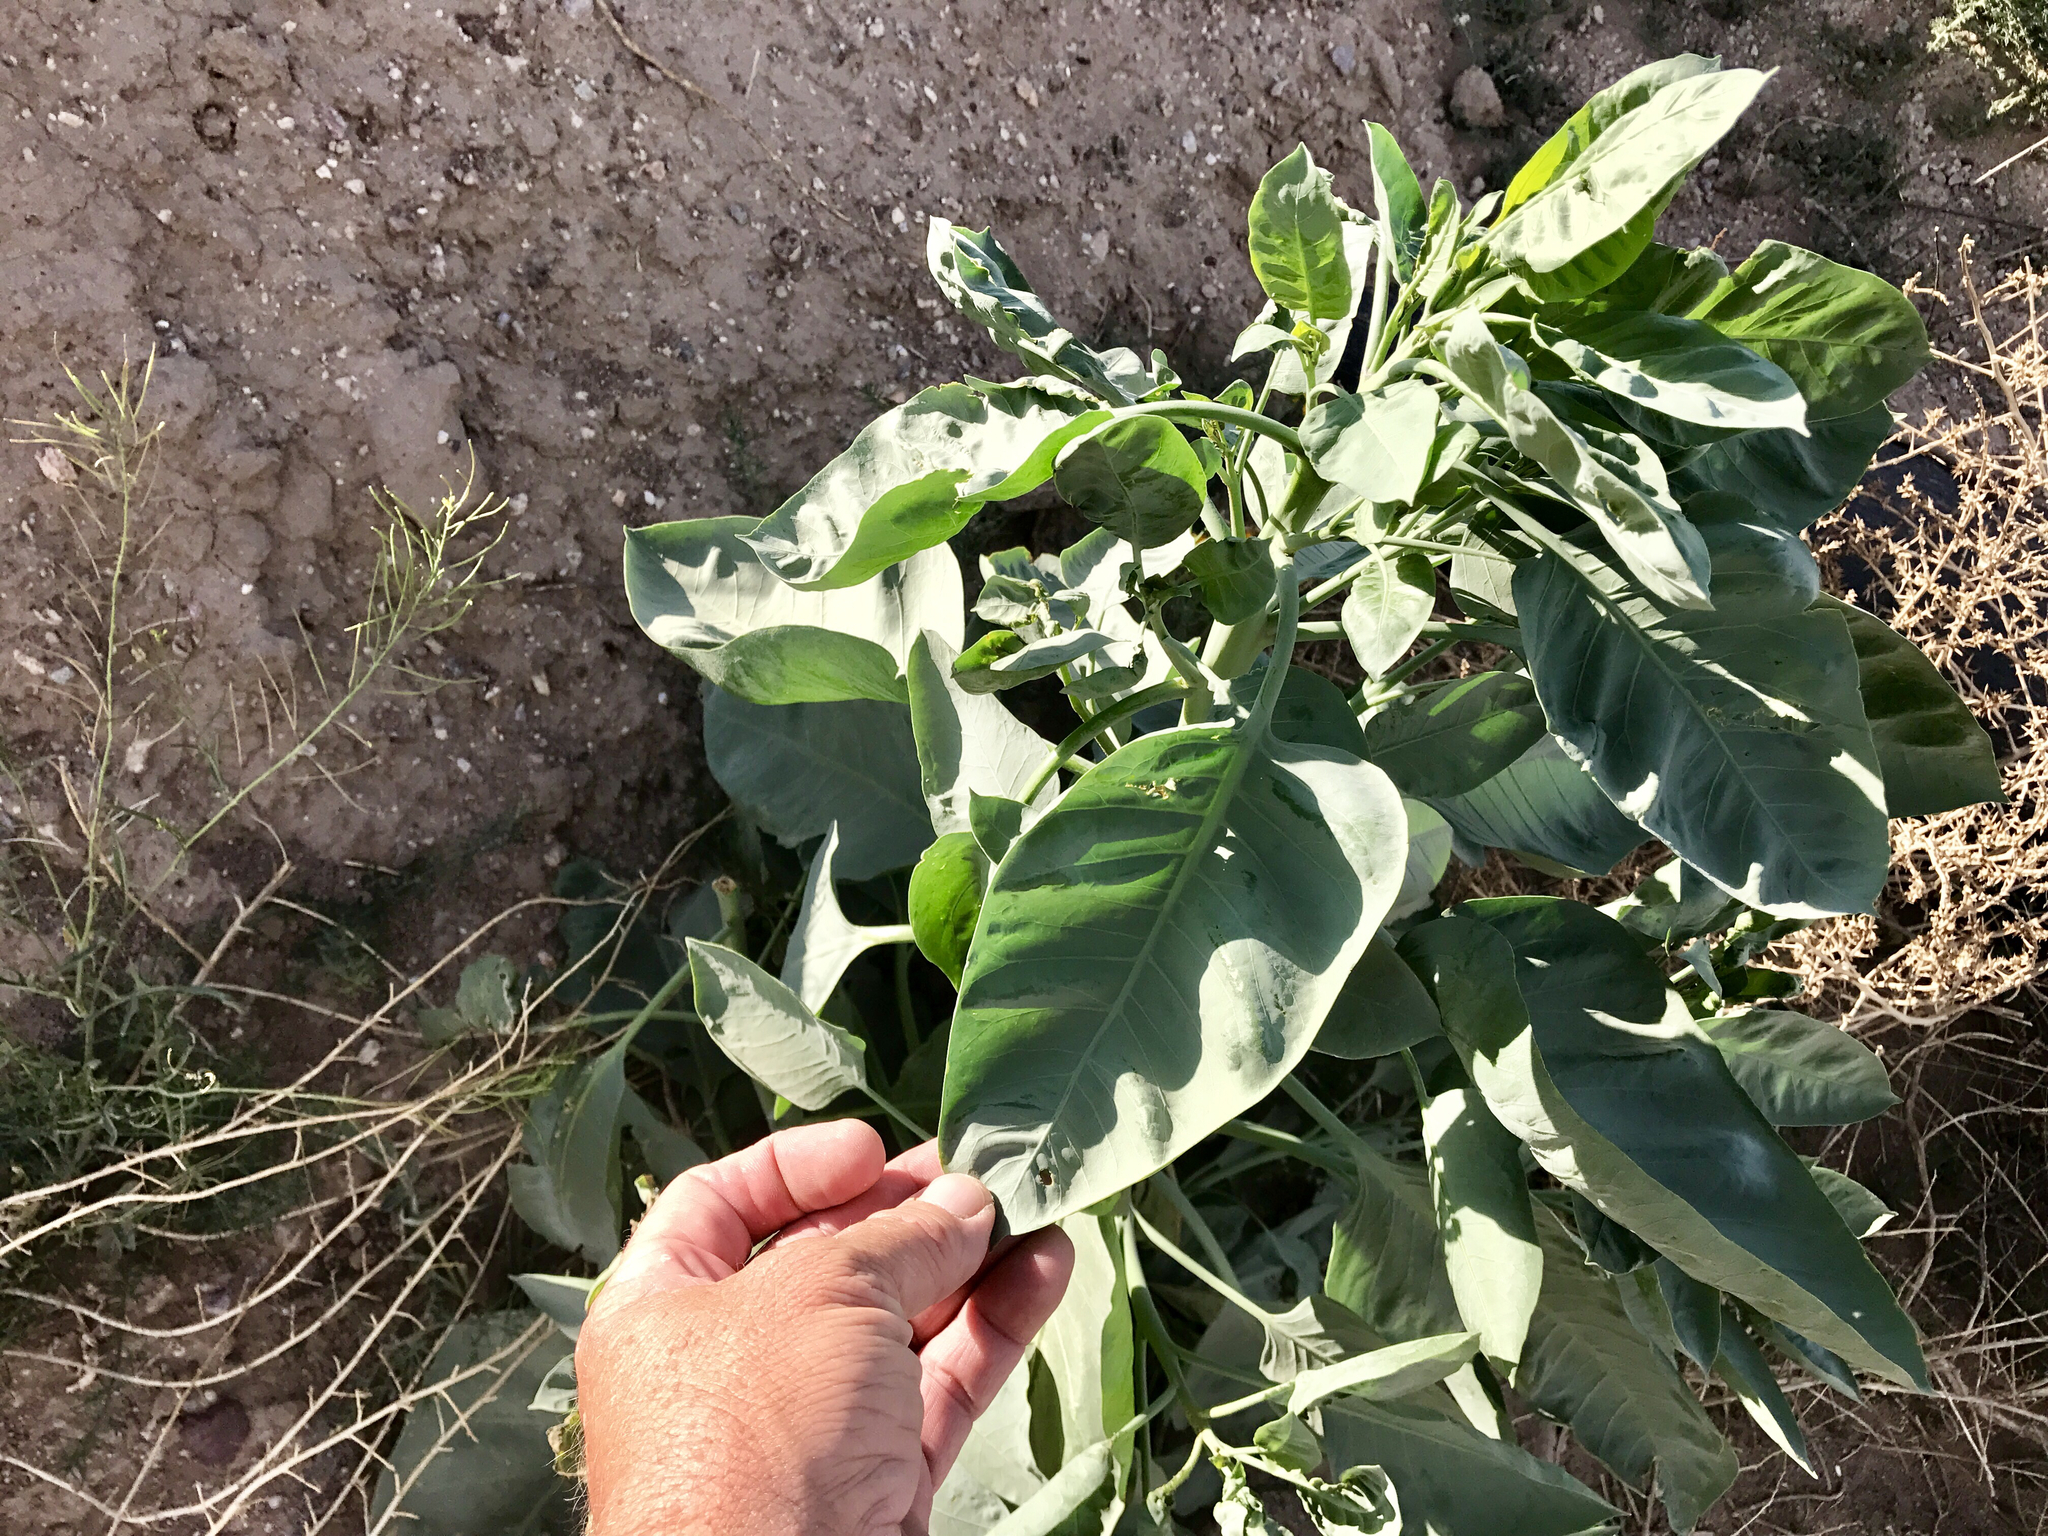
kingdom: Plantae
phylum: Tracheophyta
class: Magnoliopsida
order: Solanales
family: Solanaceae
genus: Nicotiana
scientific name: Nicotiana glauca
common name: Tree tobacco
